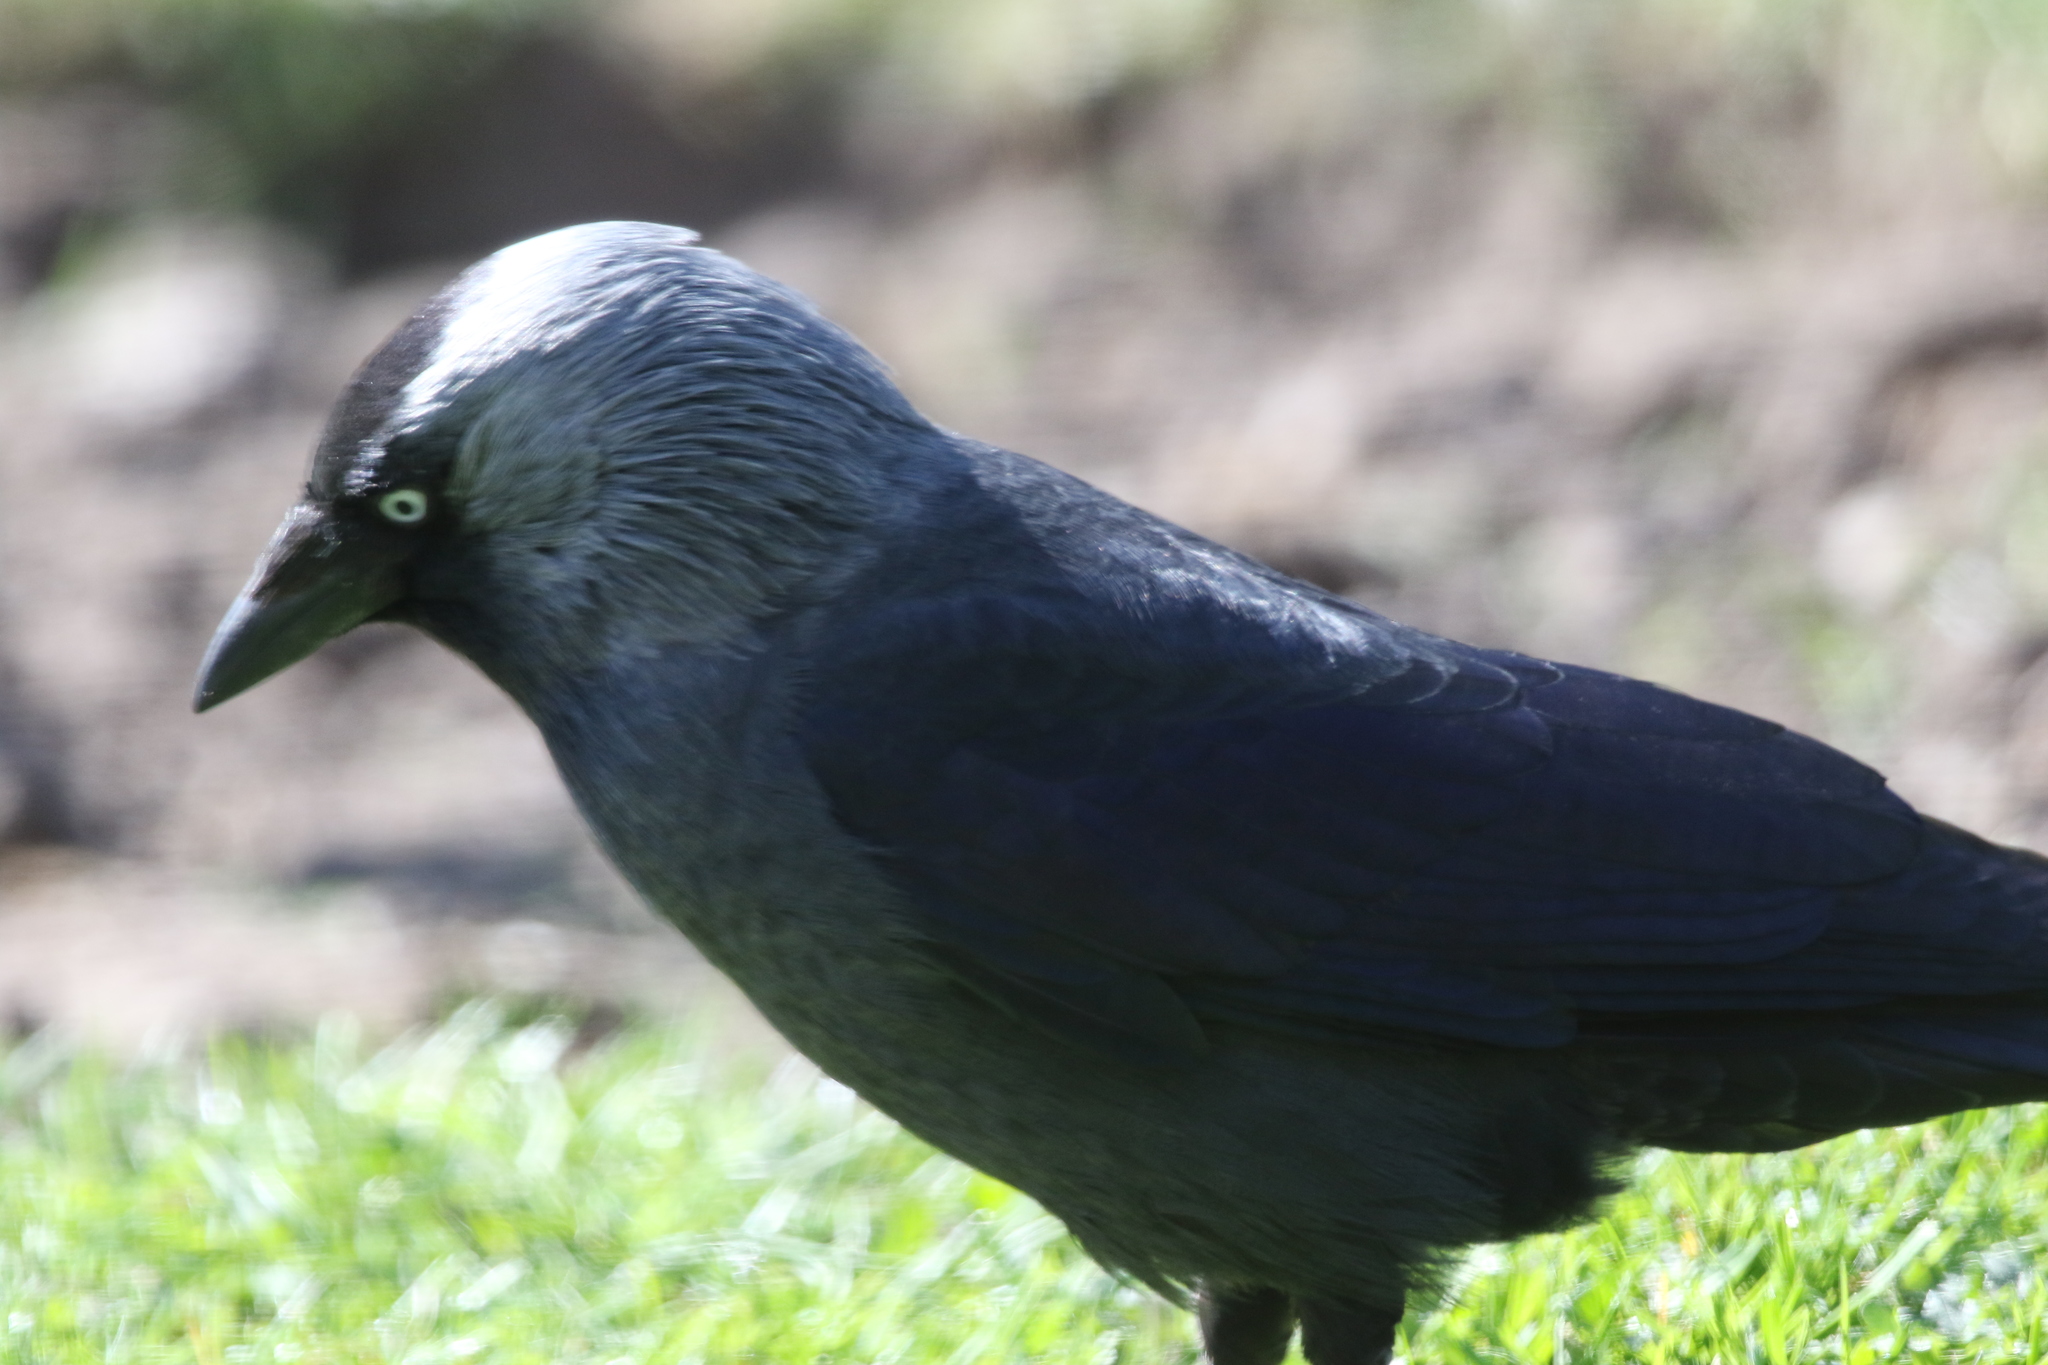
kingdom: Animalia
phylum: Chordata
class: Aves
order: Passeriformes
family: Corvidae
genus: Coloeus
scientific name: Coloeus monedula
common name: Western jackdaw
